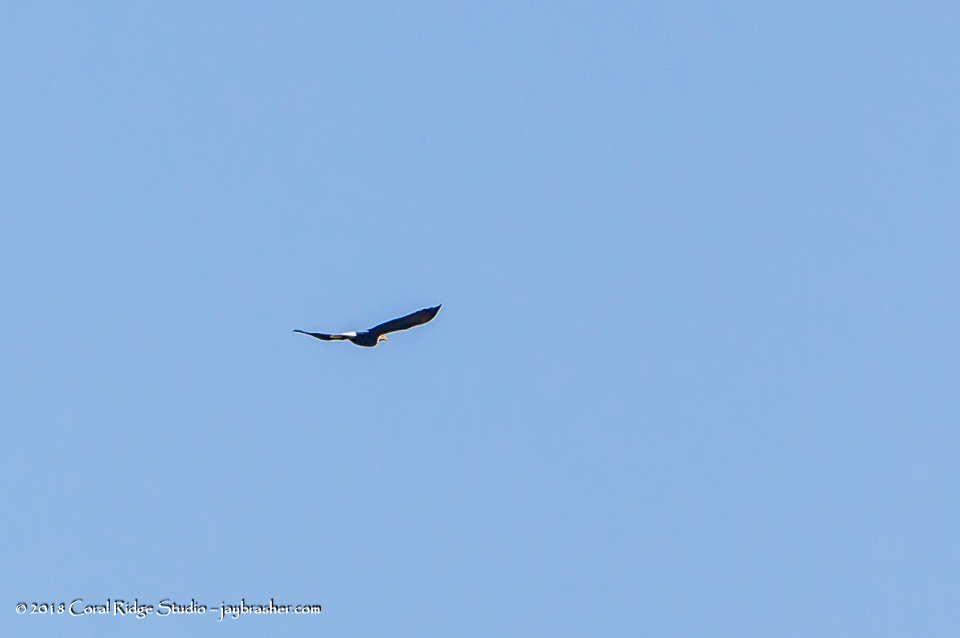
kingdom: Animalia
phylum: Chordata
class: Aves
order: Accipitriformes
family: Accipitridae
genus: Haliaeetus
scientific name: Haliaeetus leucocephalus
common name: Bald eagle
